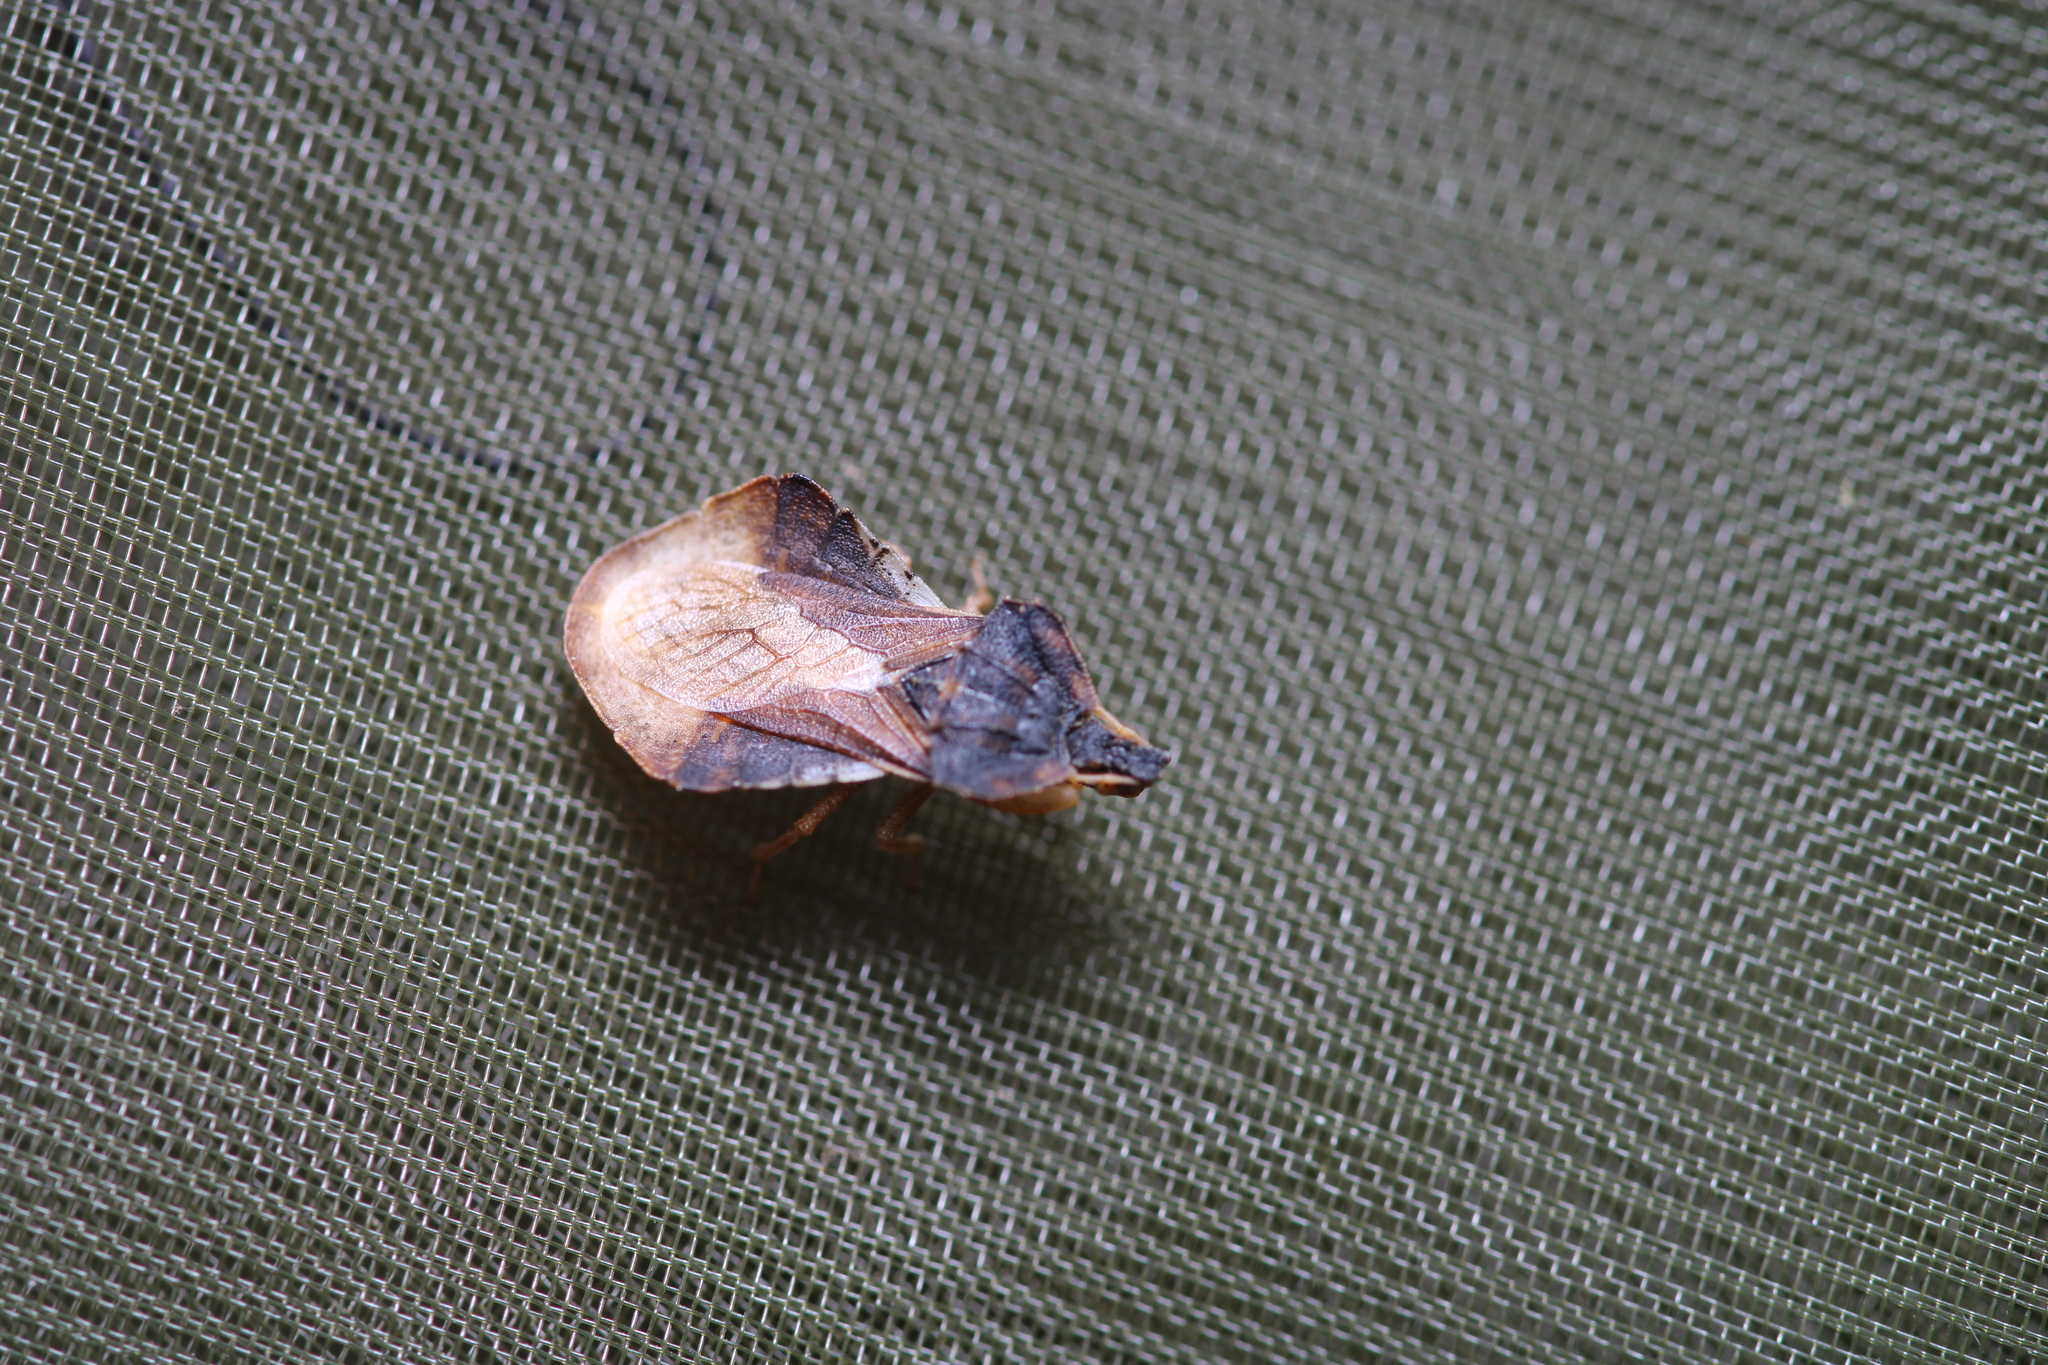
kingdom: Animalia
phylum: Arthropoda
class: Insecta
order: Hemiptera
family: Reduviidae
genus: Phymata
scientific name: Phymata crassipes
